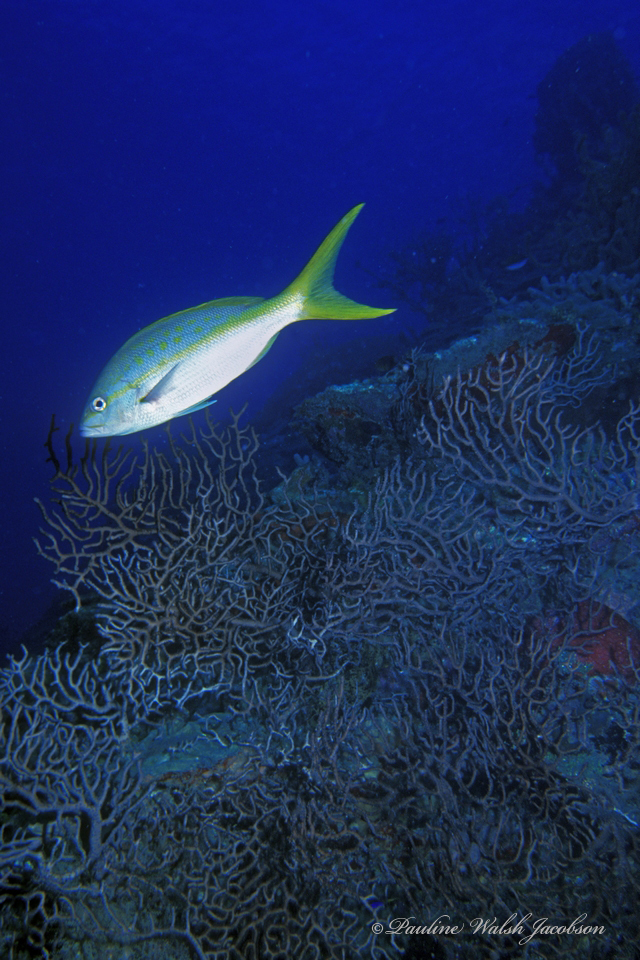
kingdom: Animalia
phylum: Chordata
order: Perciformes
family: Lutjanidae
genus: Ocyurus
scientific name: Ocyurus chrysurus
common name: Yellowtail snapper
